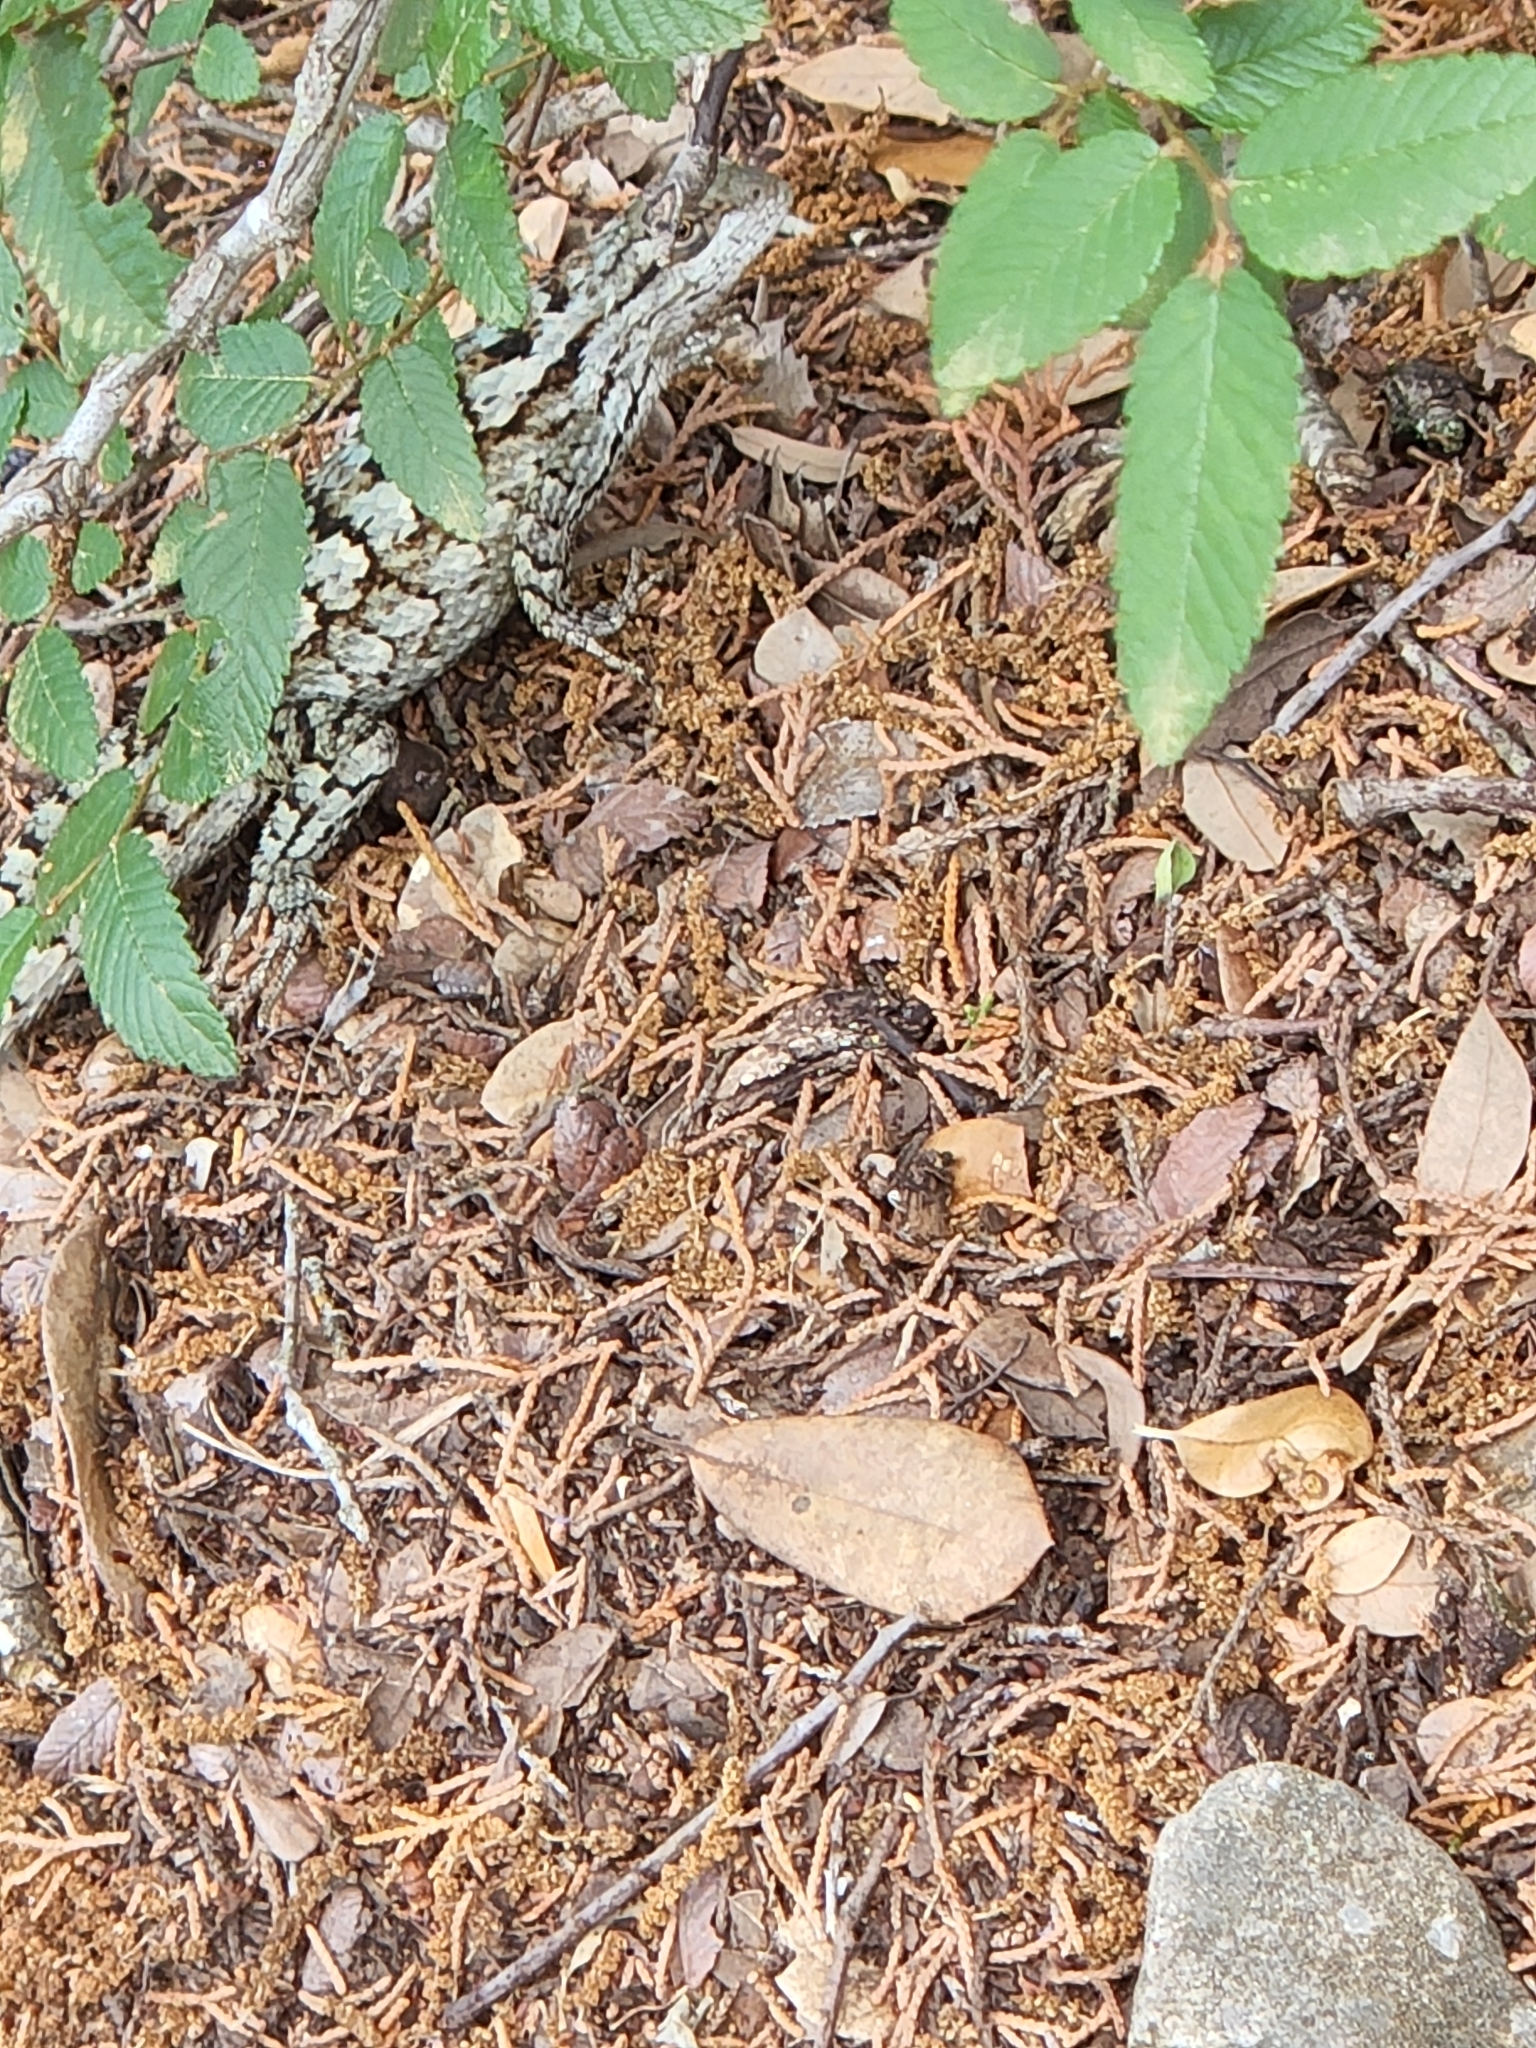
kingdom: Animalia
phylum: Chordata
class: Squamata
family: Phrynosomatidae
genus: Sceloporus
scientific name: Sceloporus olivaceus
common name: Texas spiny lizard
